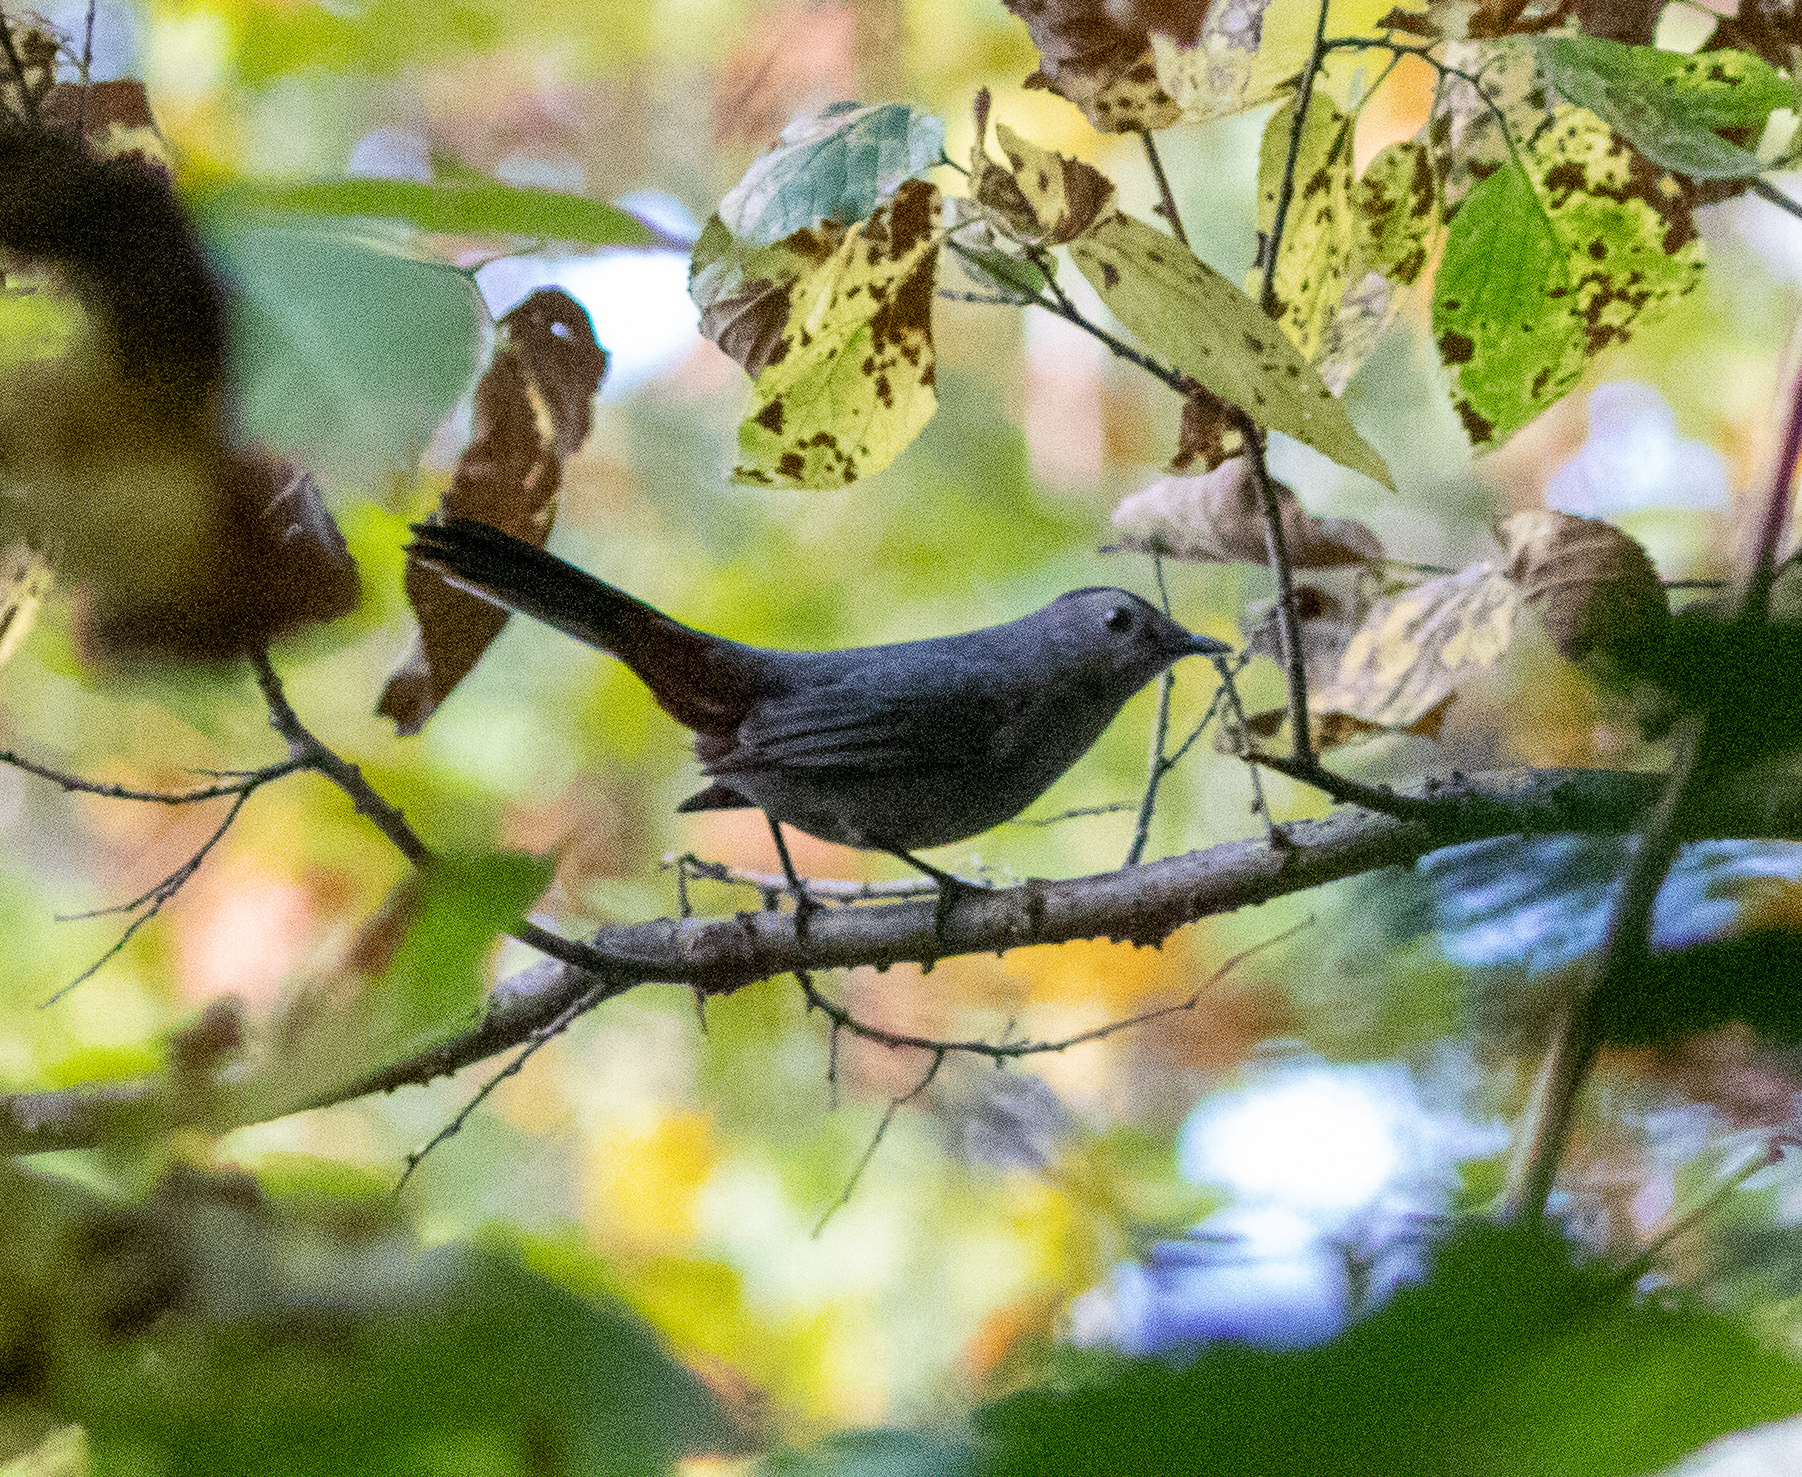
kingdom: Animalia
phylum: Chordata
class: Aves
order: Passeriformes
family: Mimidae
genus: Dumetella
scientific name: Dumetella carolinensis
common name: Gray catbird
